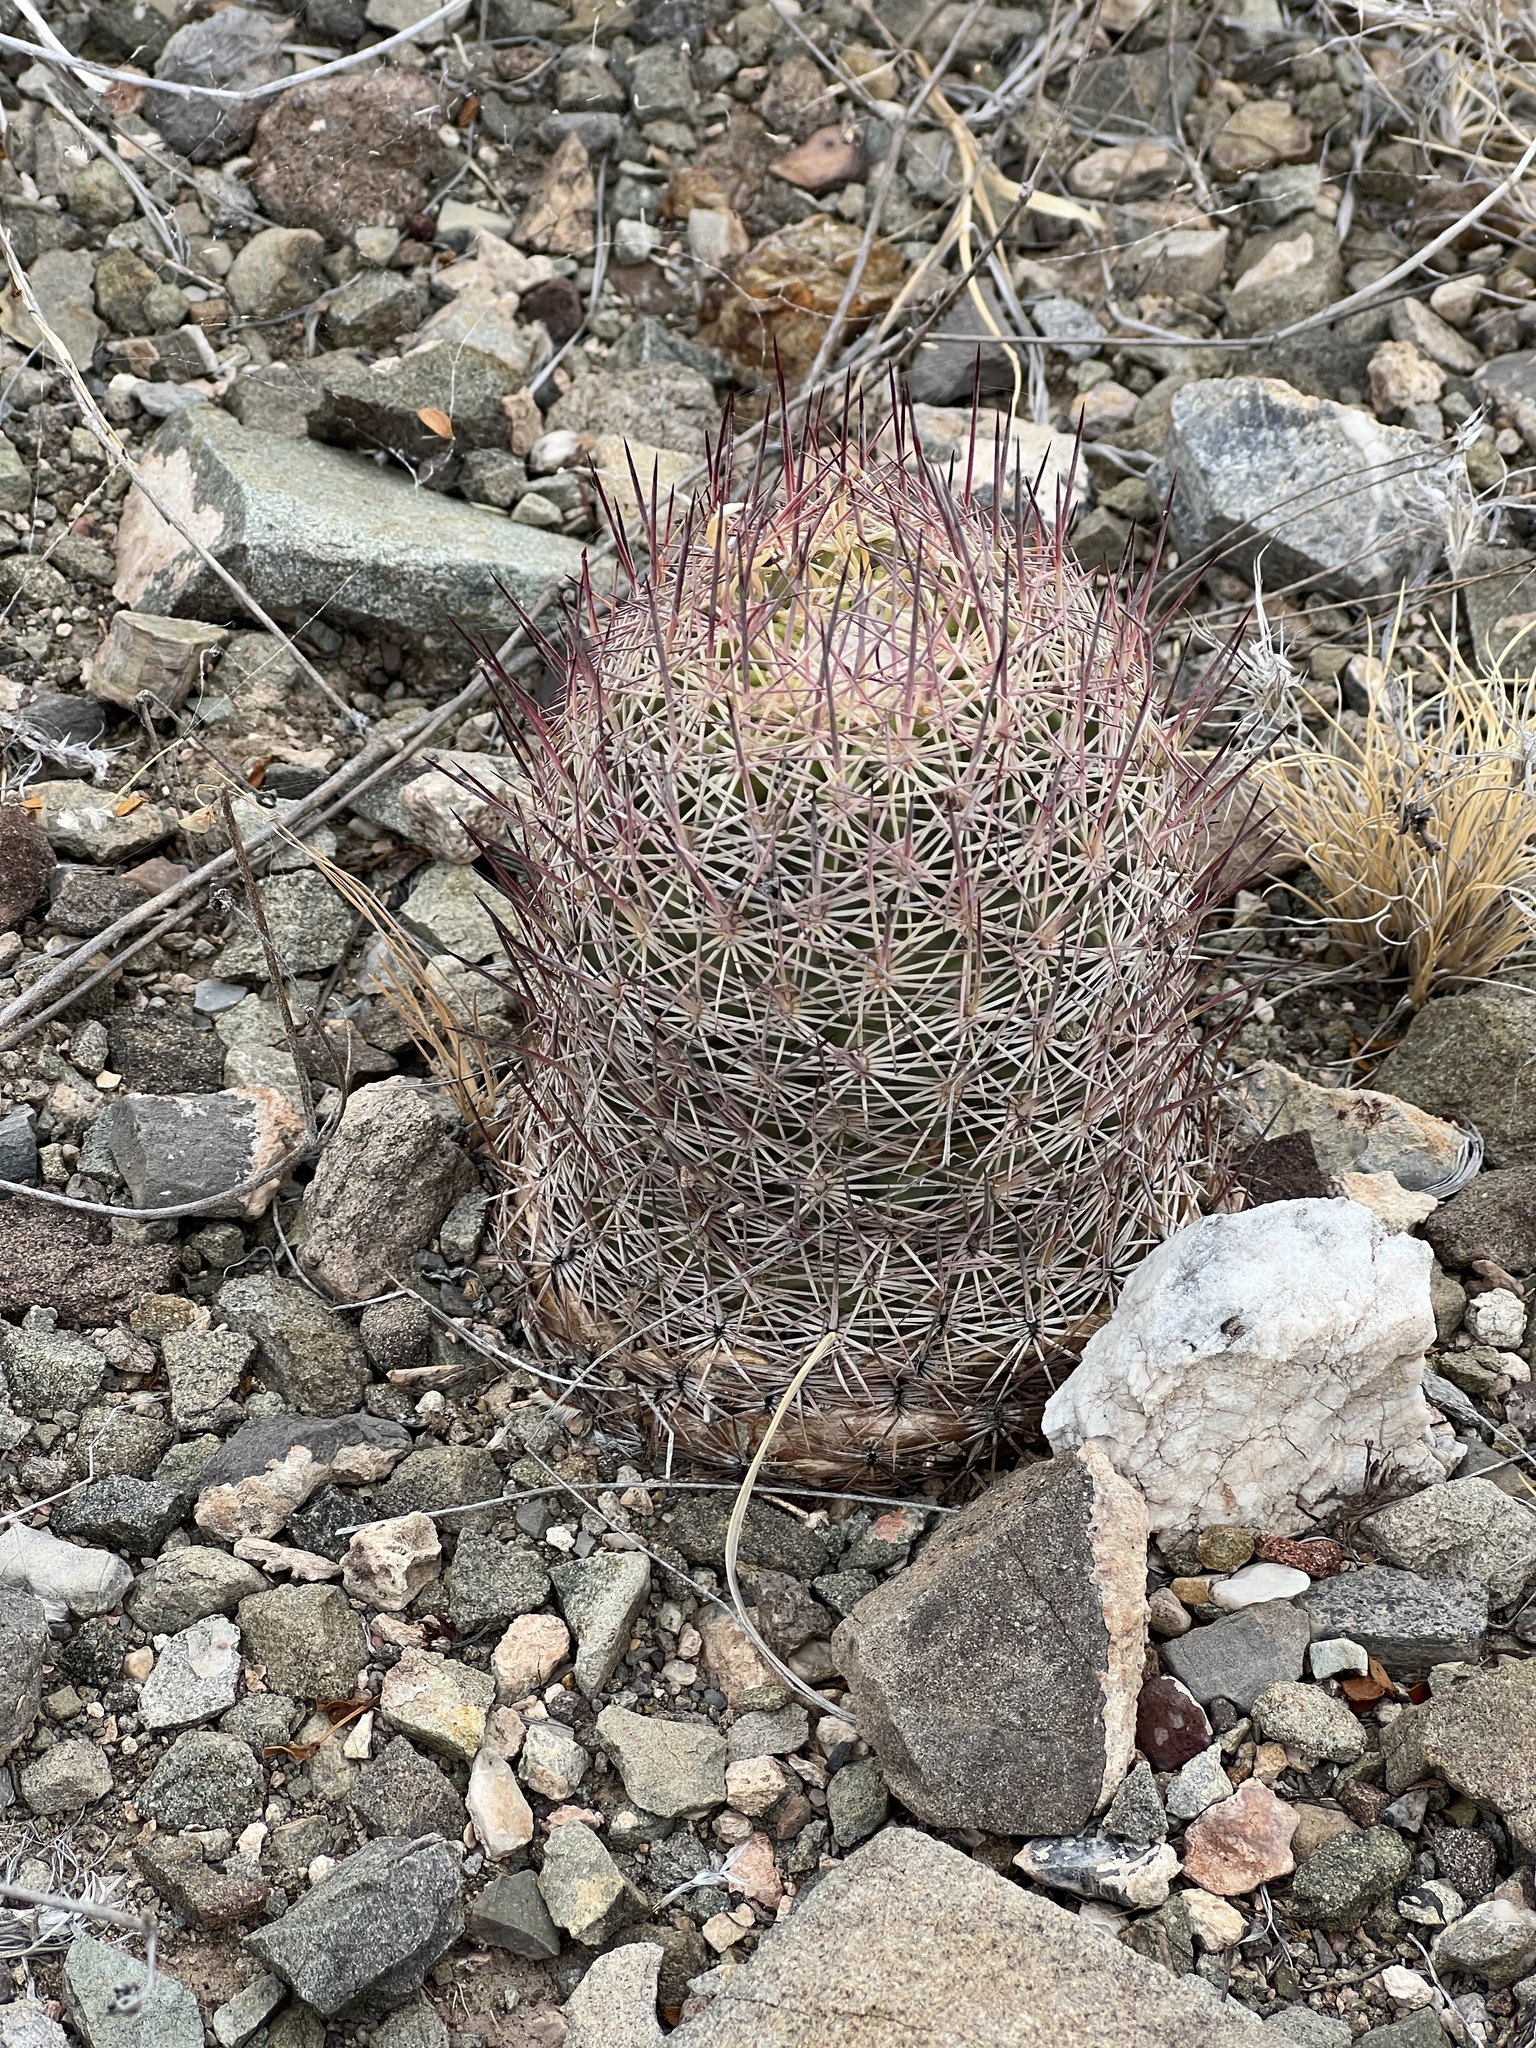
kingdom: Plantae
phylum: Tracheophyta
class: Magnoliopsida
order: Caryophyllales
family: Cactaceae
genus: Sclerocactus
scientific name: Sclerocactus johnsonii
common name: Eight-spine fishhook cactus
